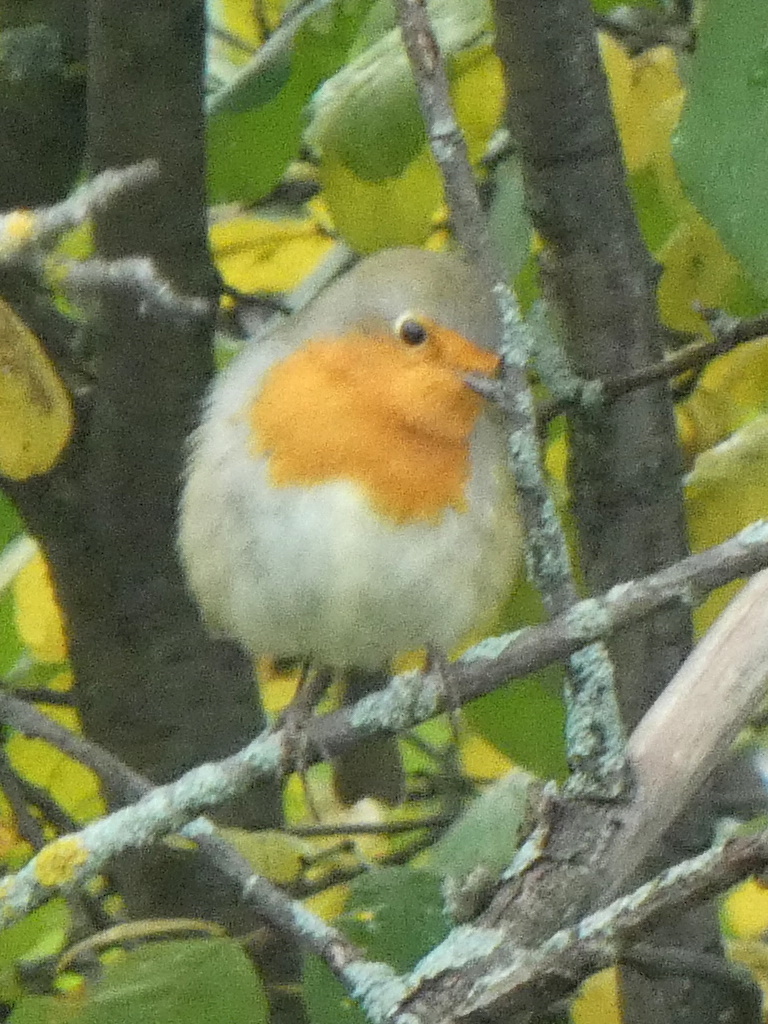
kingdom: Animalia
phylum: Chordata
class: Aves
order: Passeriformes
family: Muscicapidae
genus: Erithacus
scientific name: Erithacus rubecula
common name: European robin
